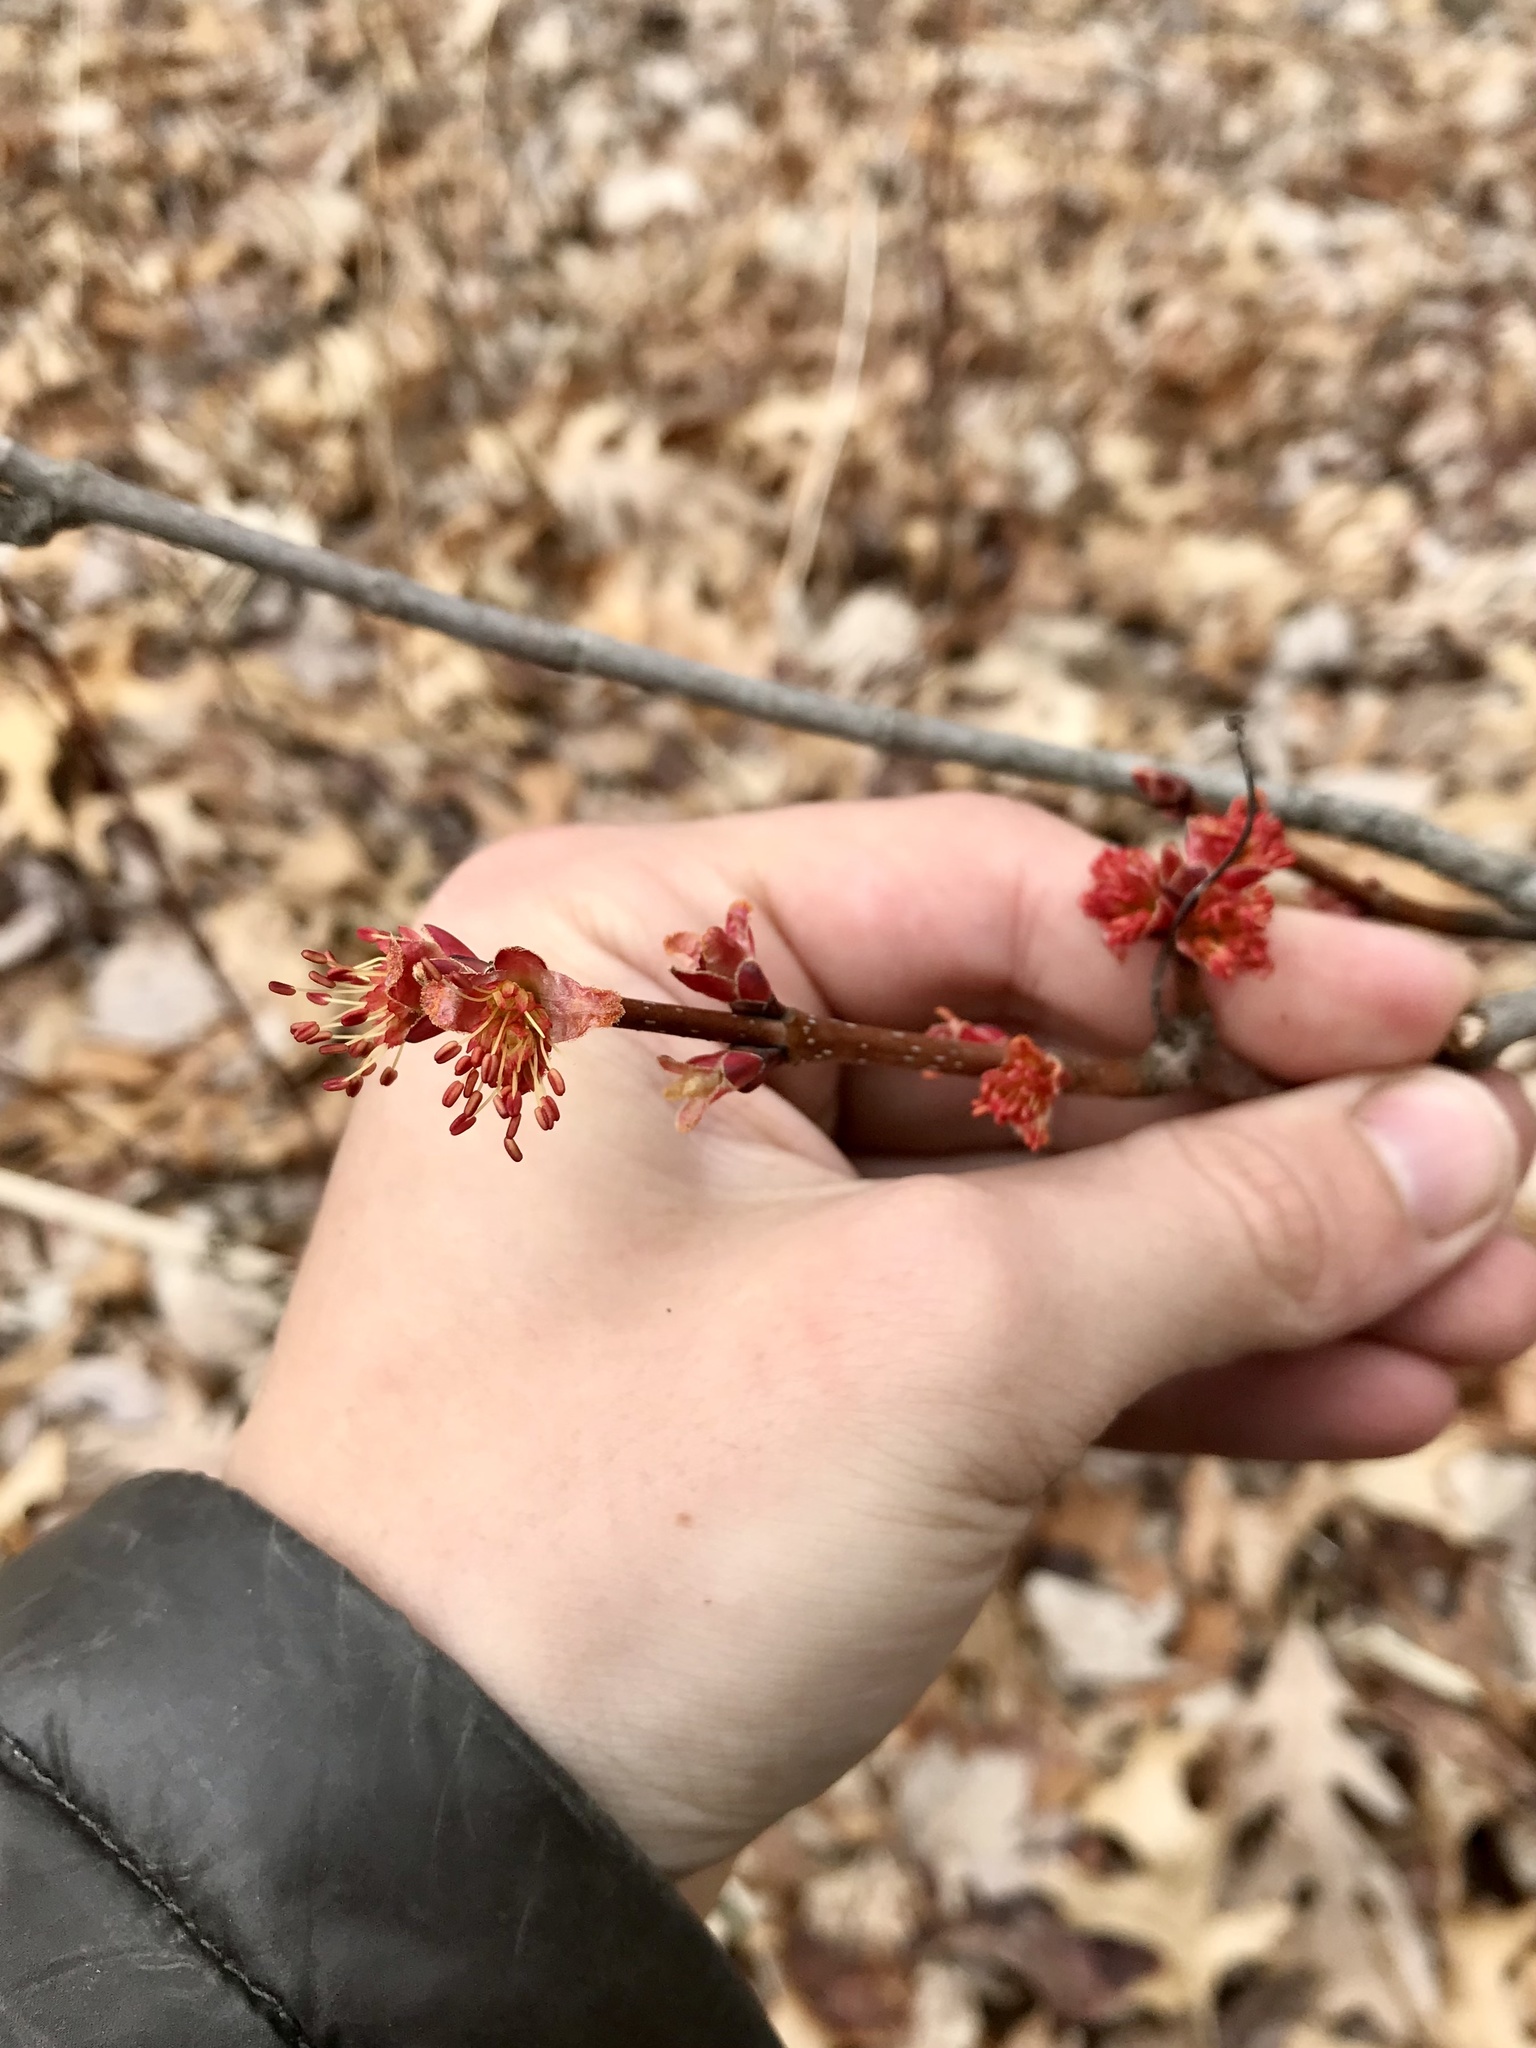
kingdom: Plantae
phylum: Tracheophyta
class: Magnoliopsida
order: Sapindales
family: Sapindaceae
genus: Acer
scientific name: Acer rubrum
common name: Red maple
